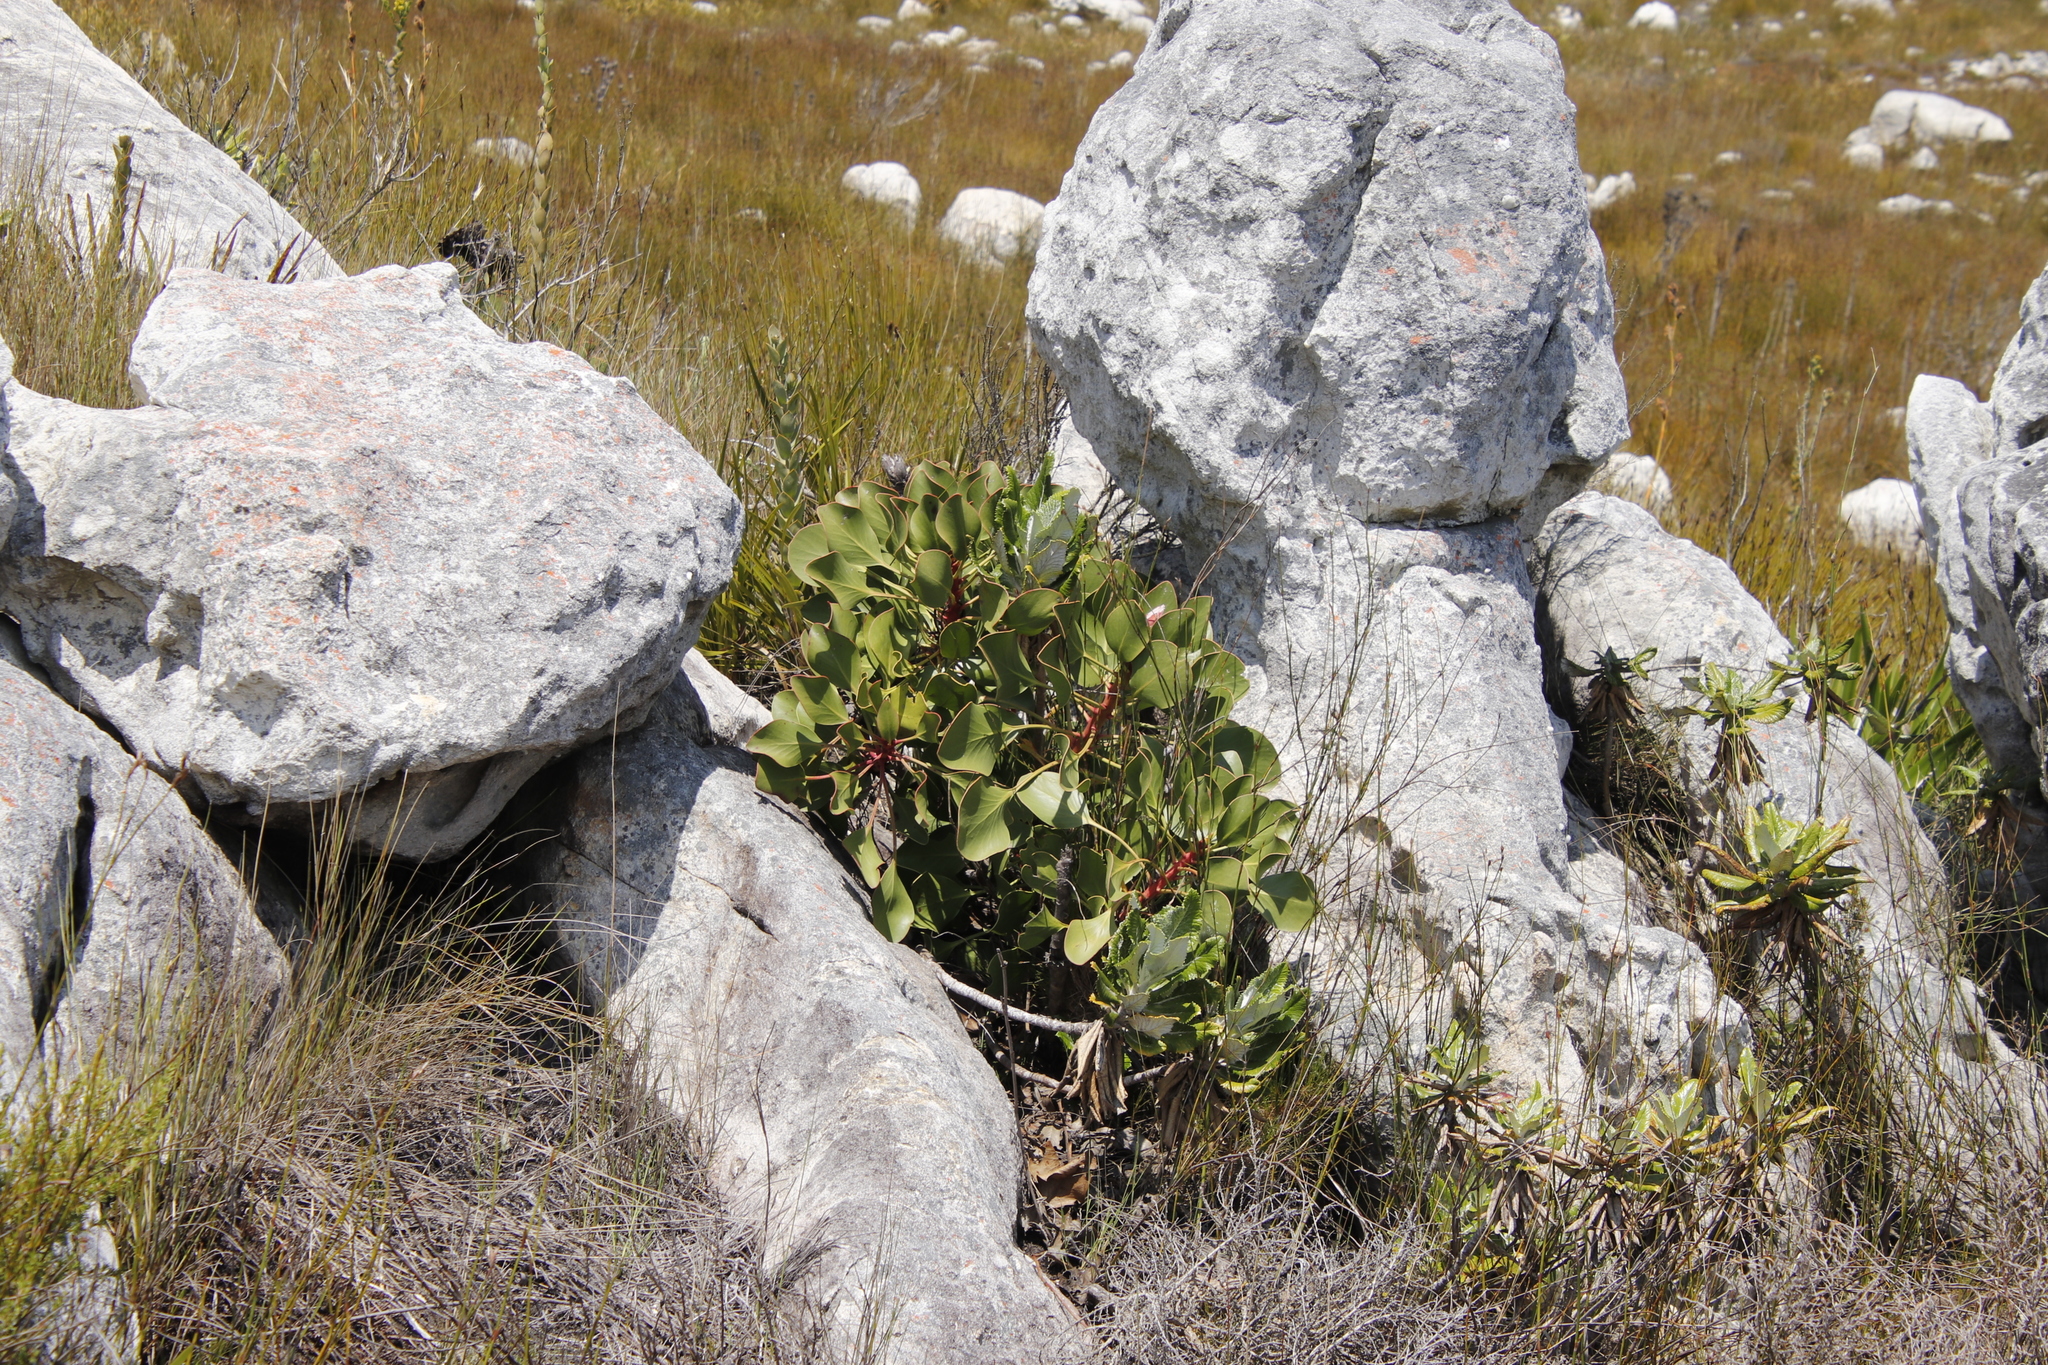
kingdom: Plantae
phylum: Tracheophyta
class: Magnoliopsida
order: Proteales
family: Proteaceae
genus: Protea
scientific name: Protea cynaroides
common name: King protea
